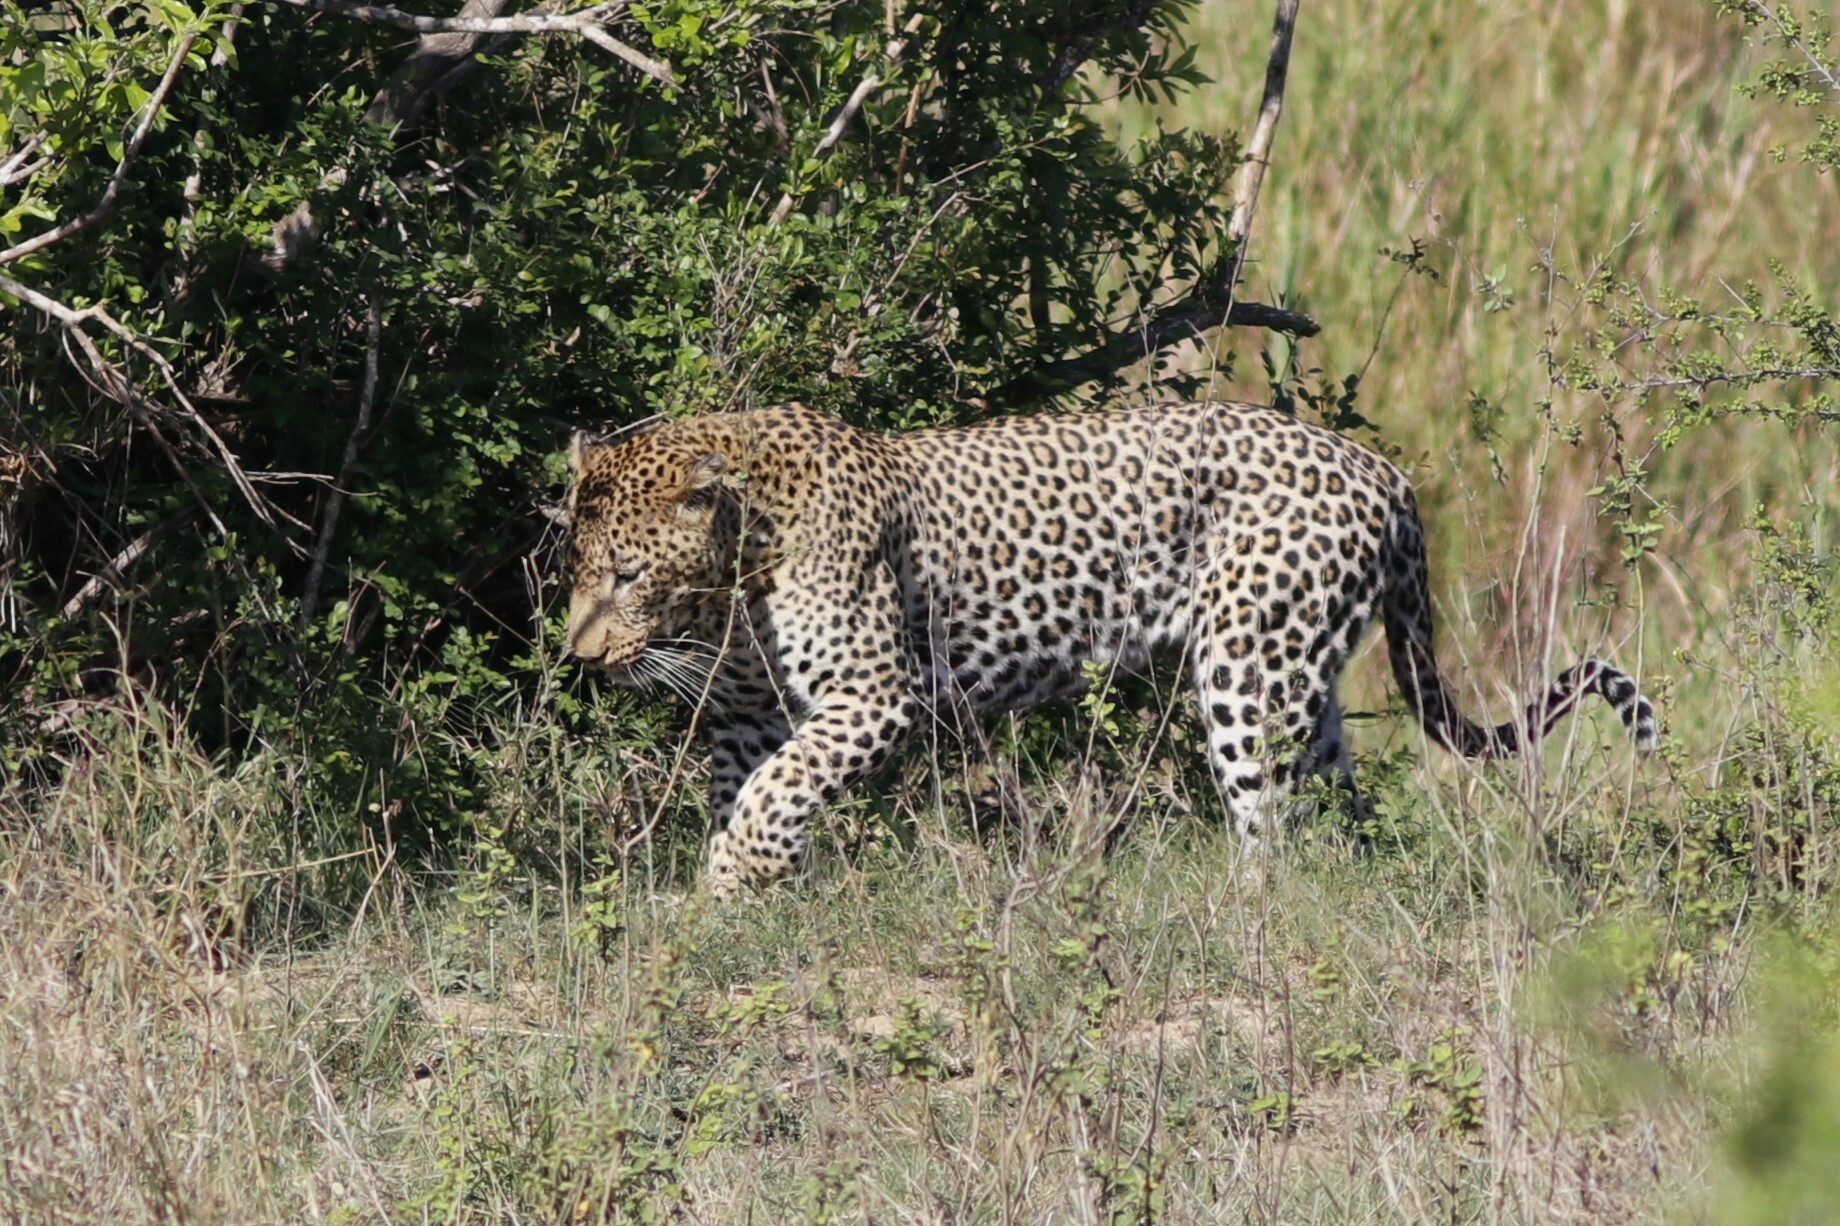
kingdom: Animalia
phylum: Chordata
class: Mammalia
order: Carnivora
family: Felidae
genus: Panthera
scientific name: Panthera pardus
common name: Leopard
